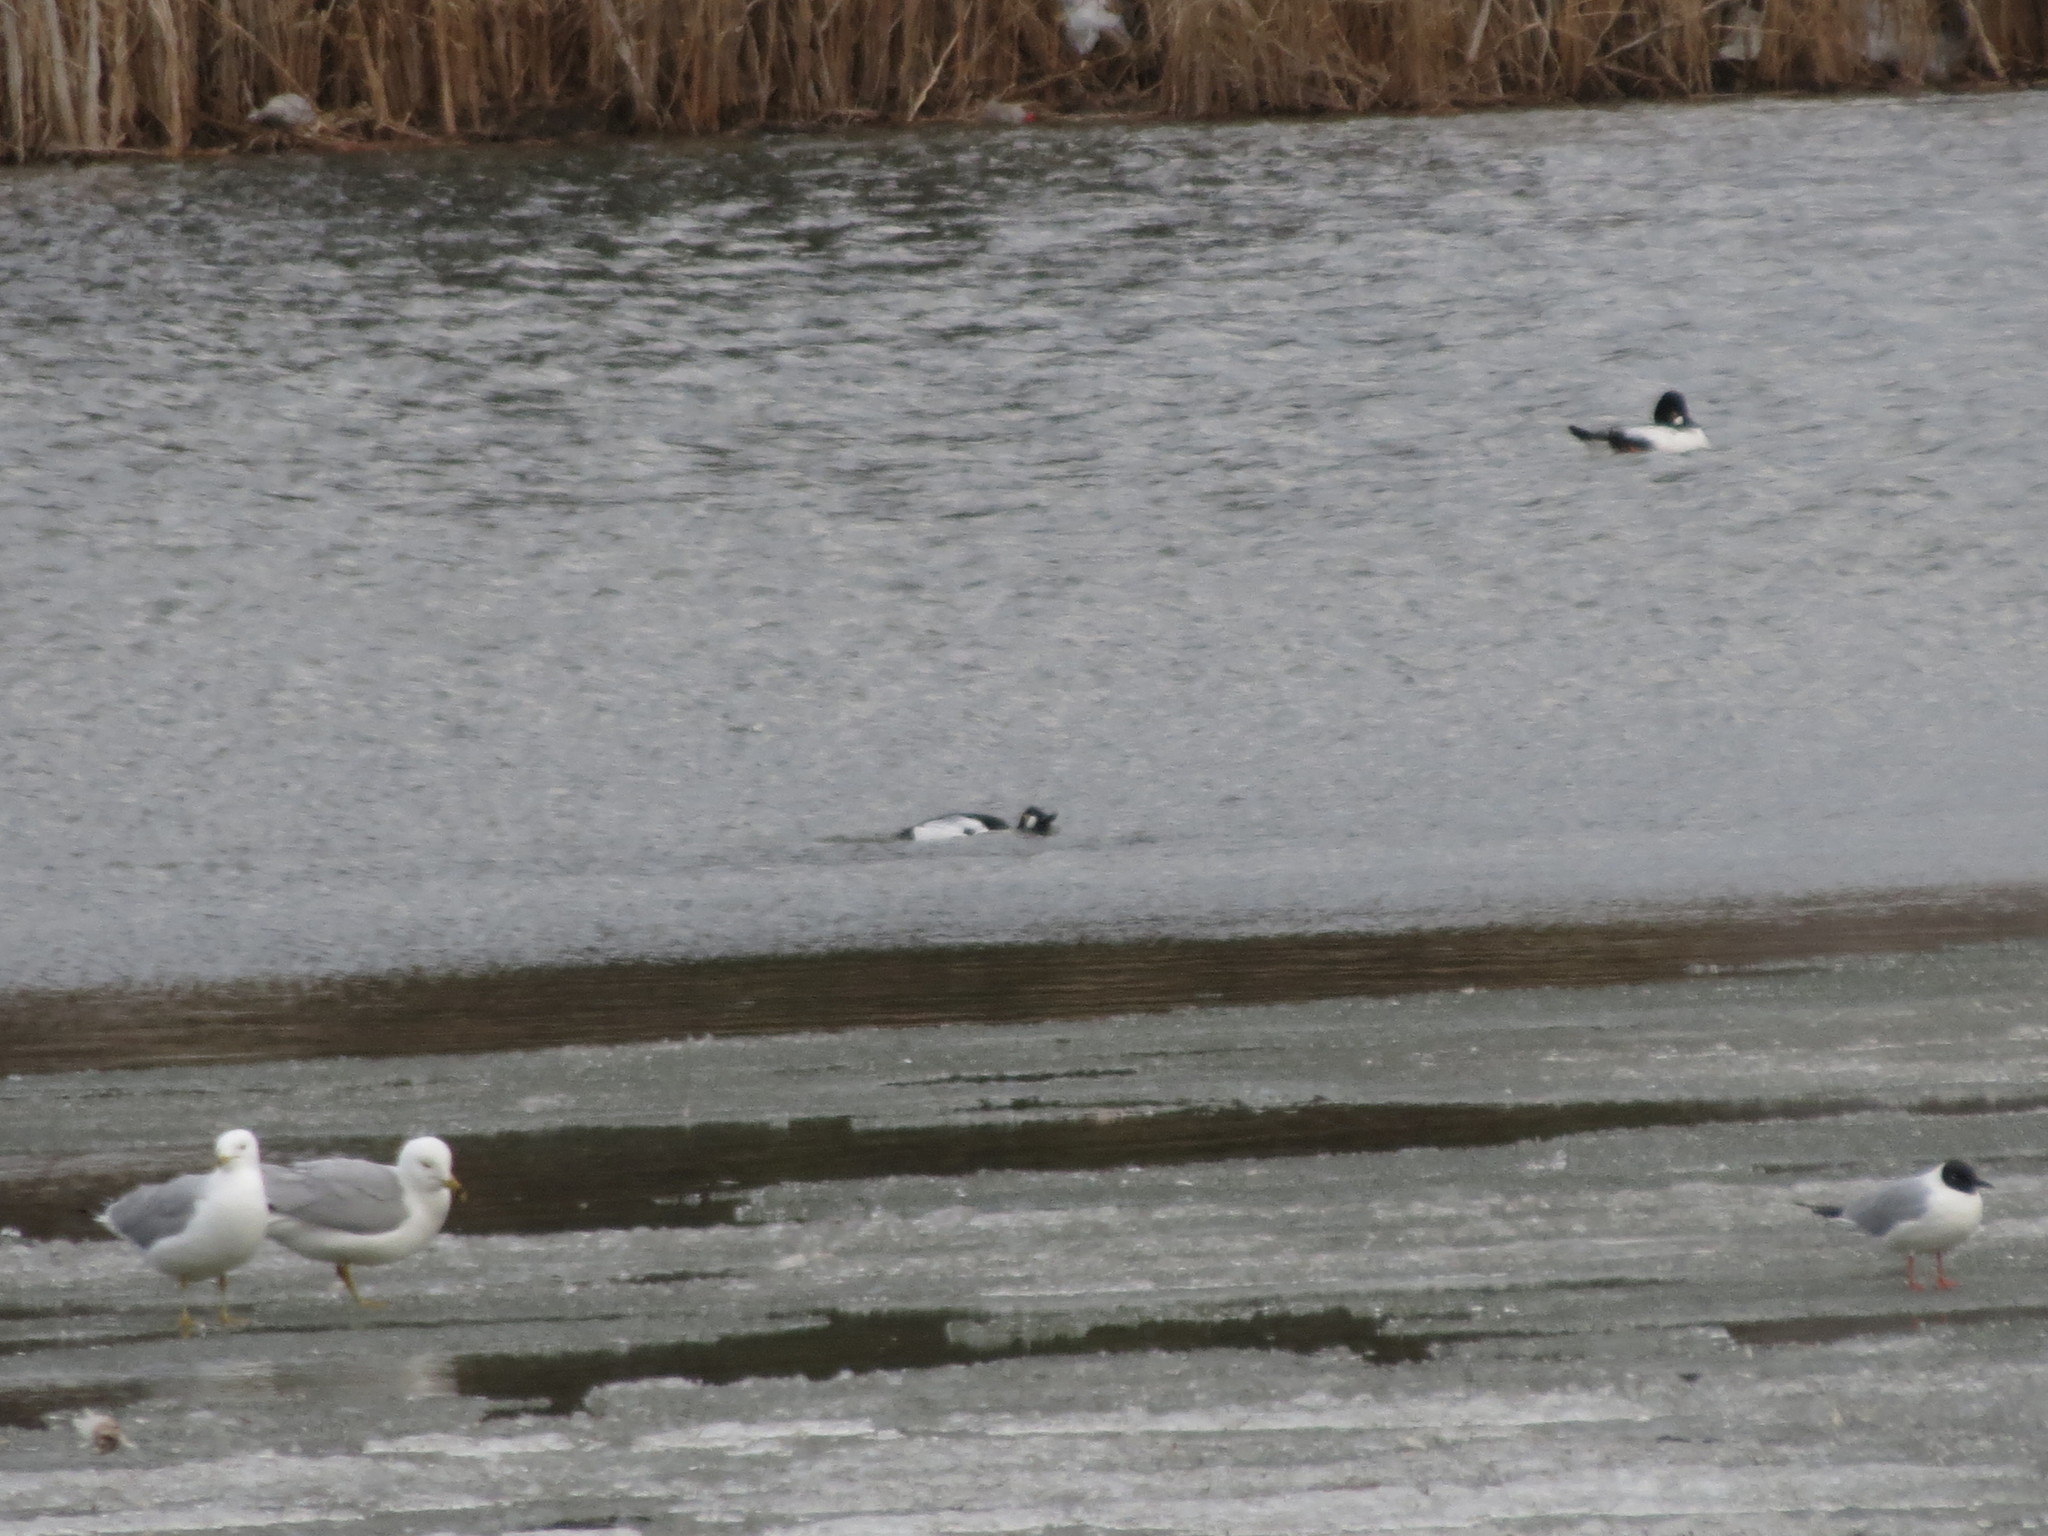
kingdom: Animalia
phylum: Chordata
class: Aves
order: Anseriformes
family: Anatidae
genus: Bucephala
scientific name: Bucephala clangula
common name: Common goldeneye
